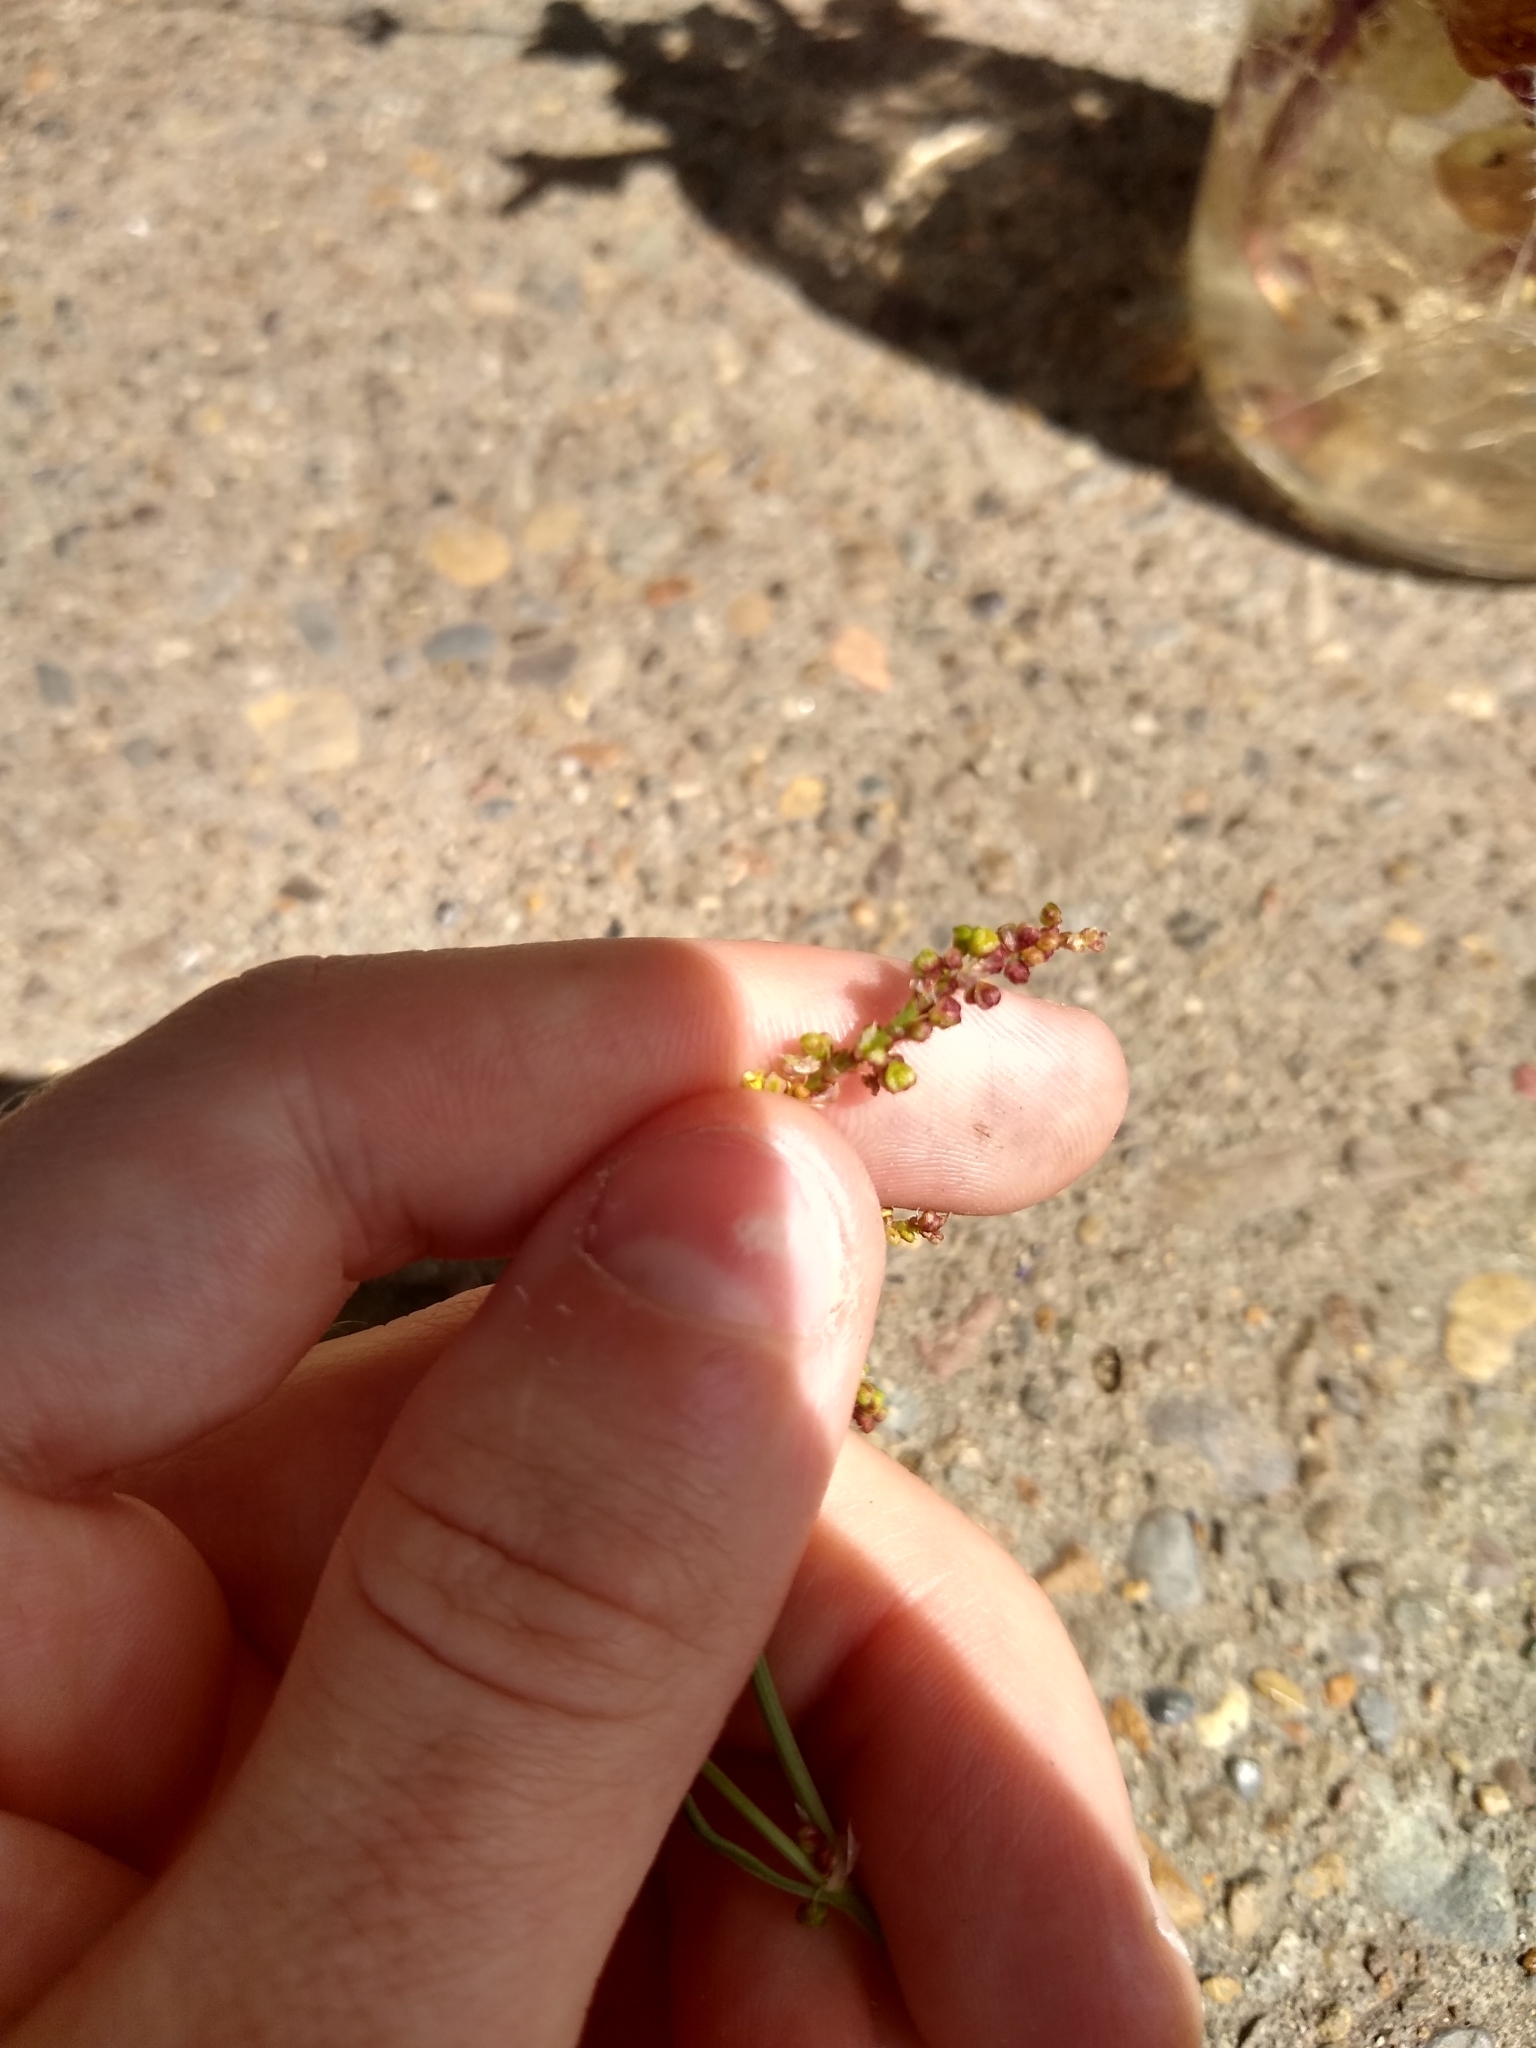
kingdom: Plantae
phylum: Tracheophyta
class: Magnoliopsida
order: Caryophyllales
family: Polygonaceae
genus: Rumex
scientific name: Rumex acetosella
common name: Common sheep sorrel
